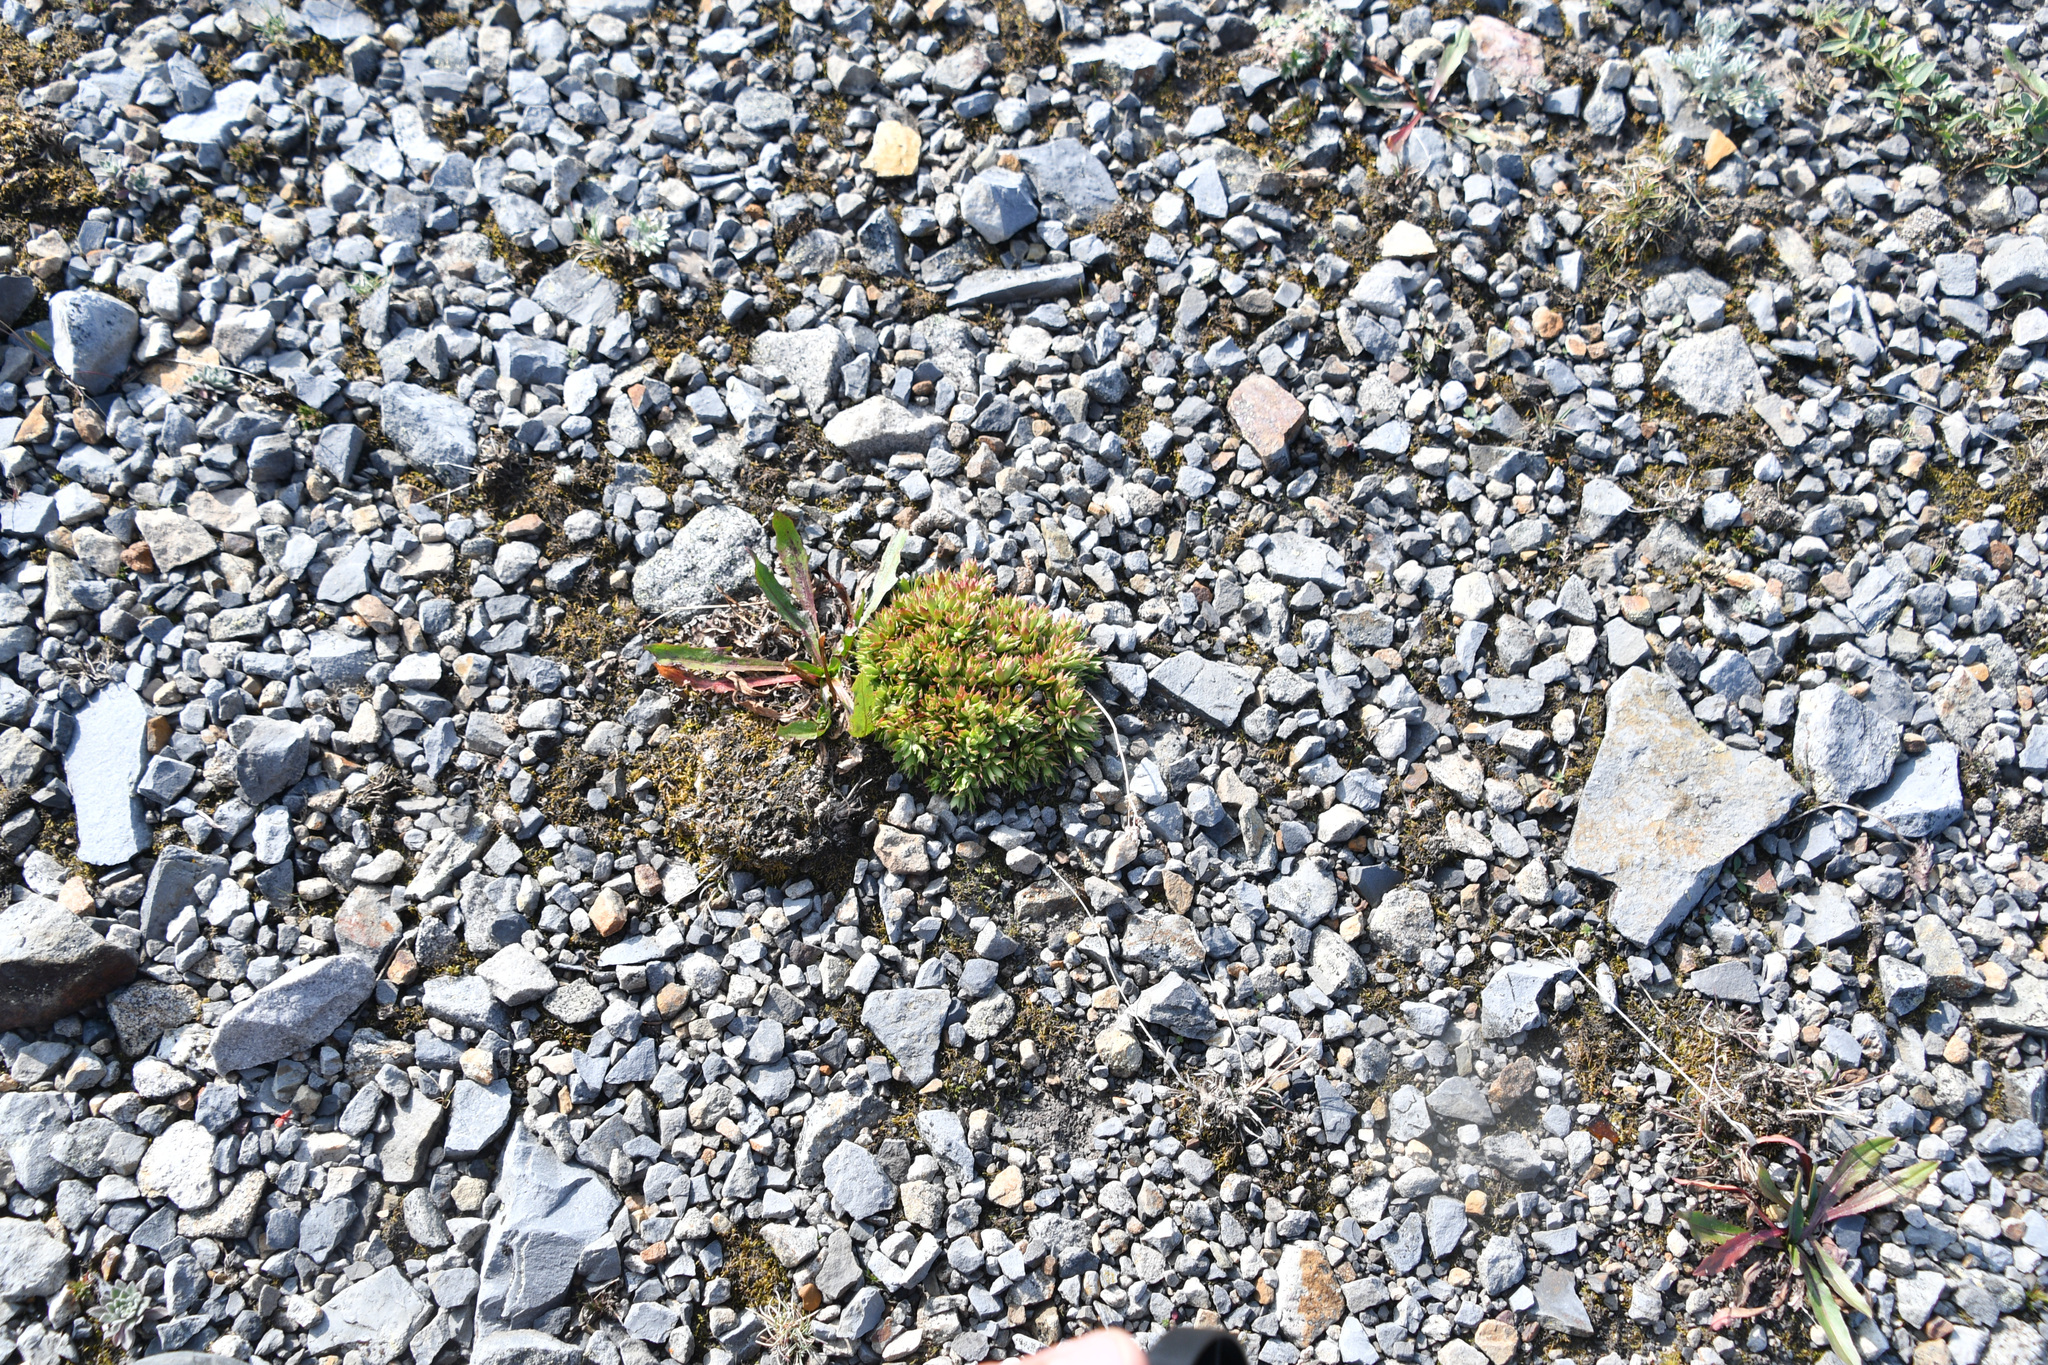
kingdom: Plantae
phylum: Tracheophyta
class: Magnoliopsida
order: Saxifragales
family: Saxifragaceae
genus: Saxifraga
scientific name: Saxifraga tricuspidata
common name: Prickly saxifrage
